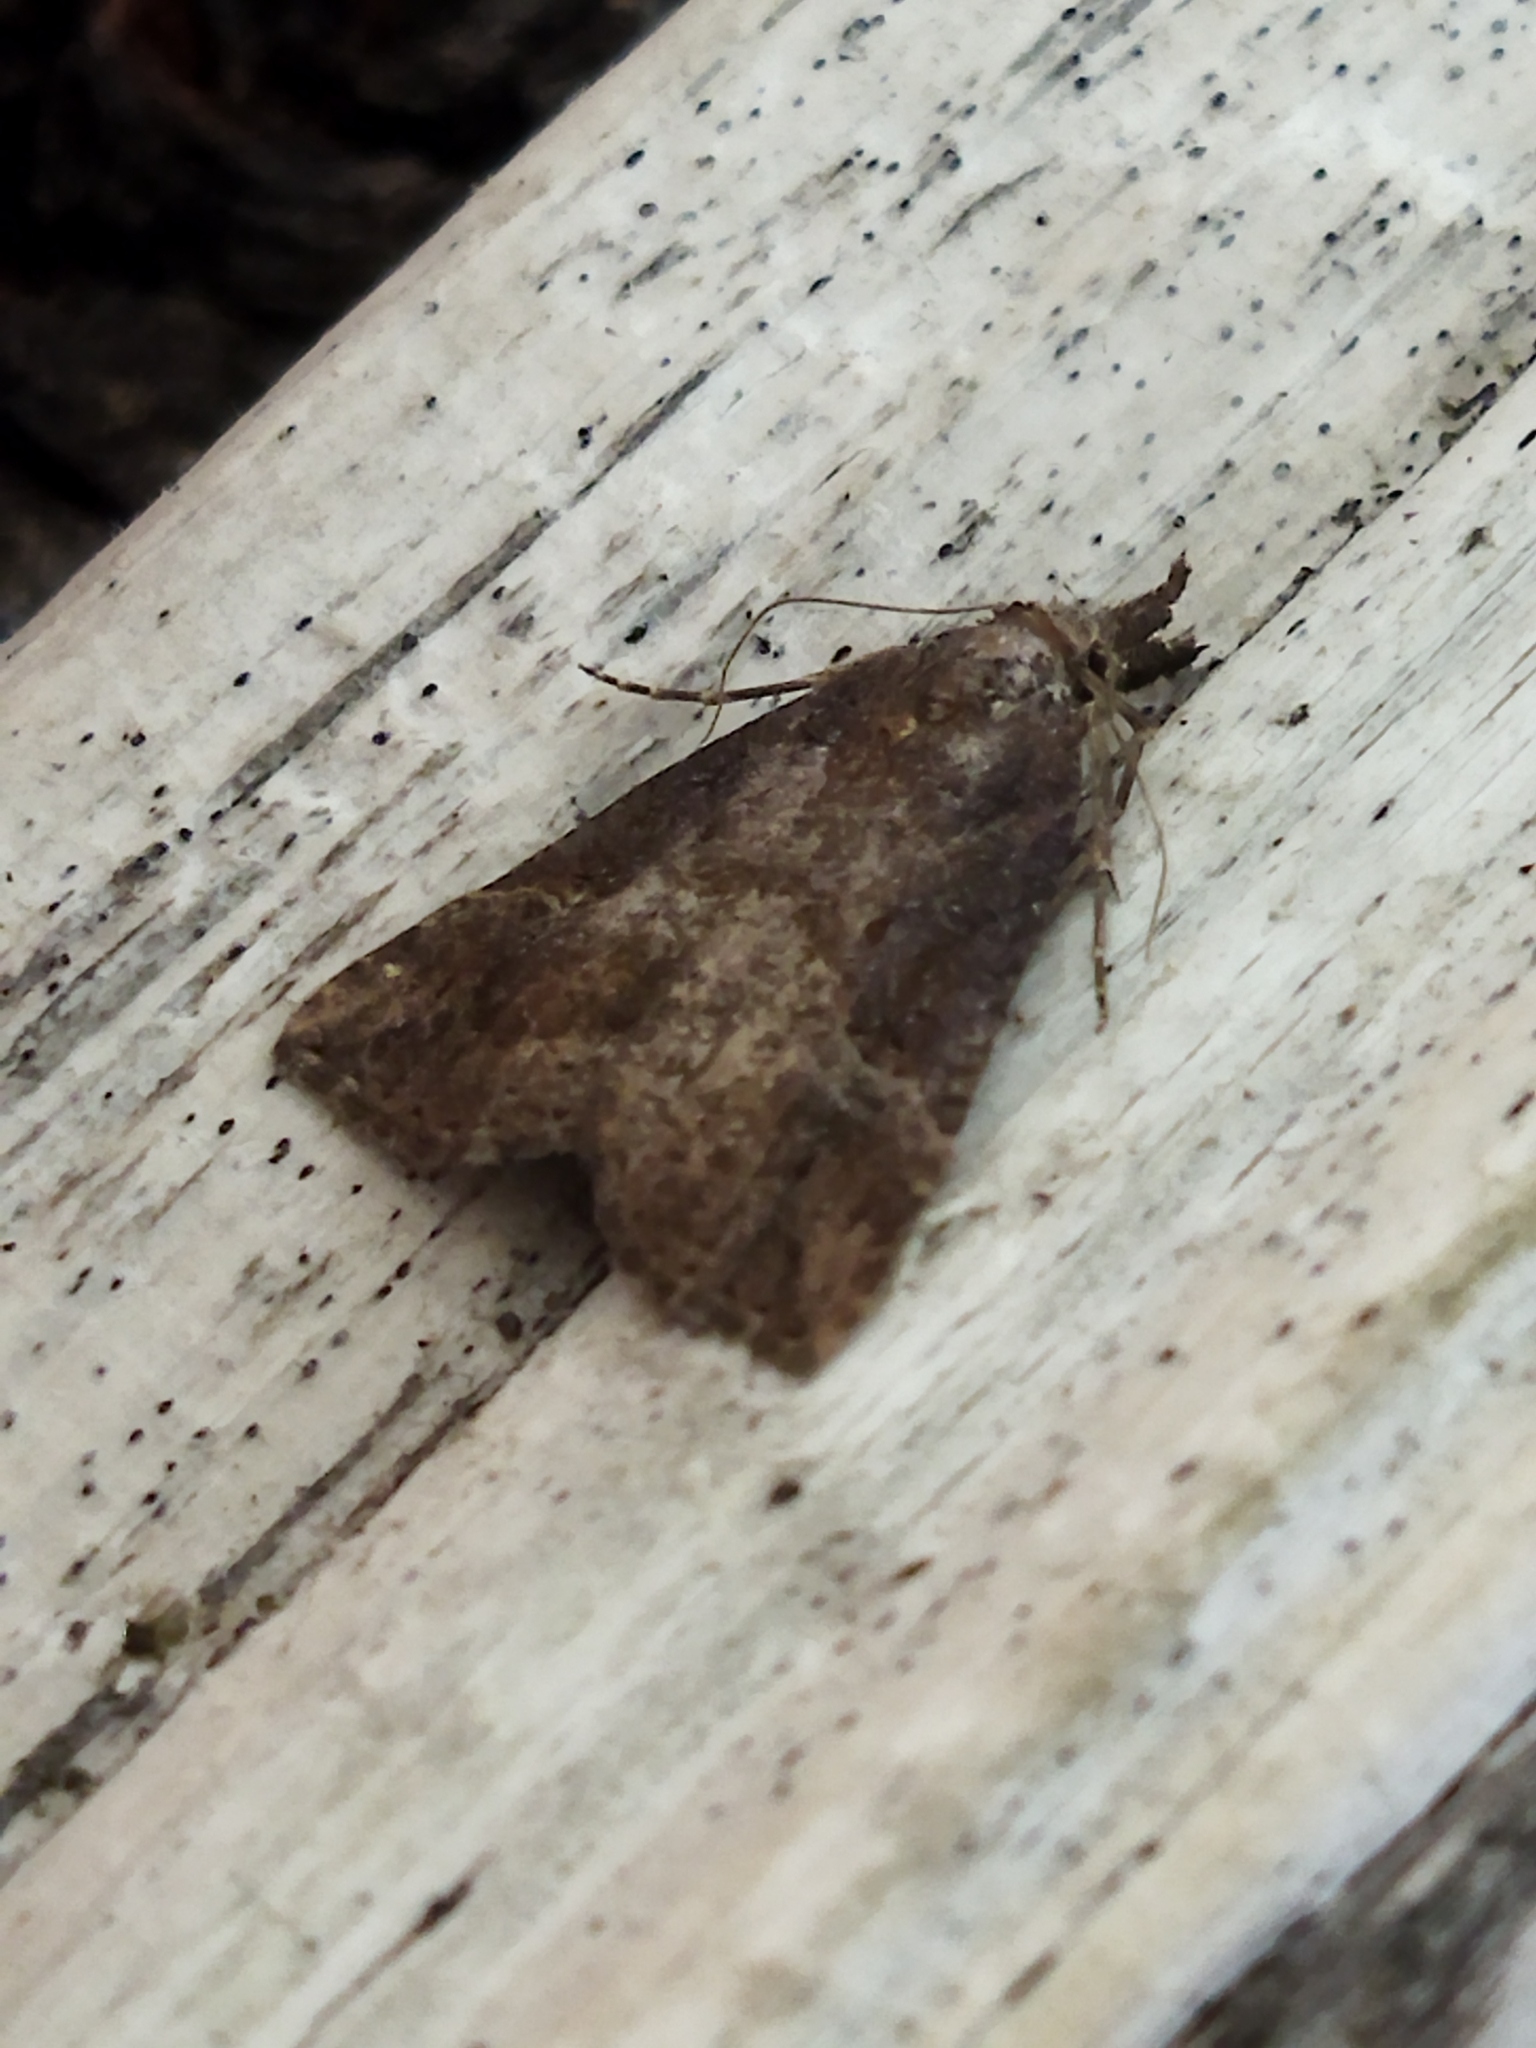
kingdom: Animalia
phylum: Arthropoda
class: Insecta
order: Lepidoptera
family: Erebidae
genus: Hypena
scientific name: Hypena rostralis
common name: Buttoned snout
